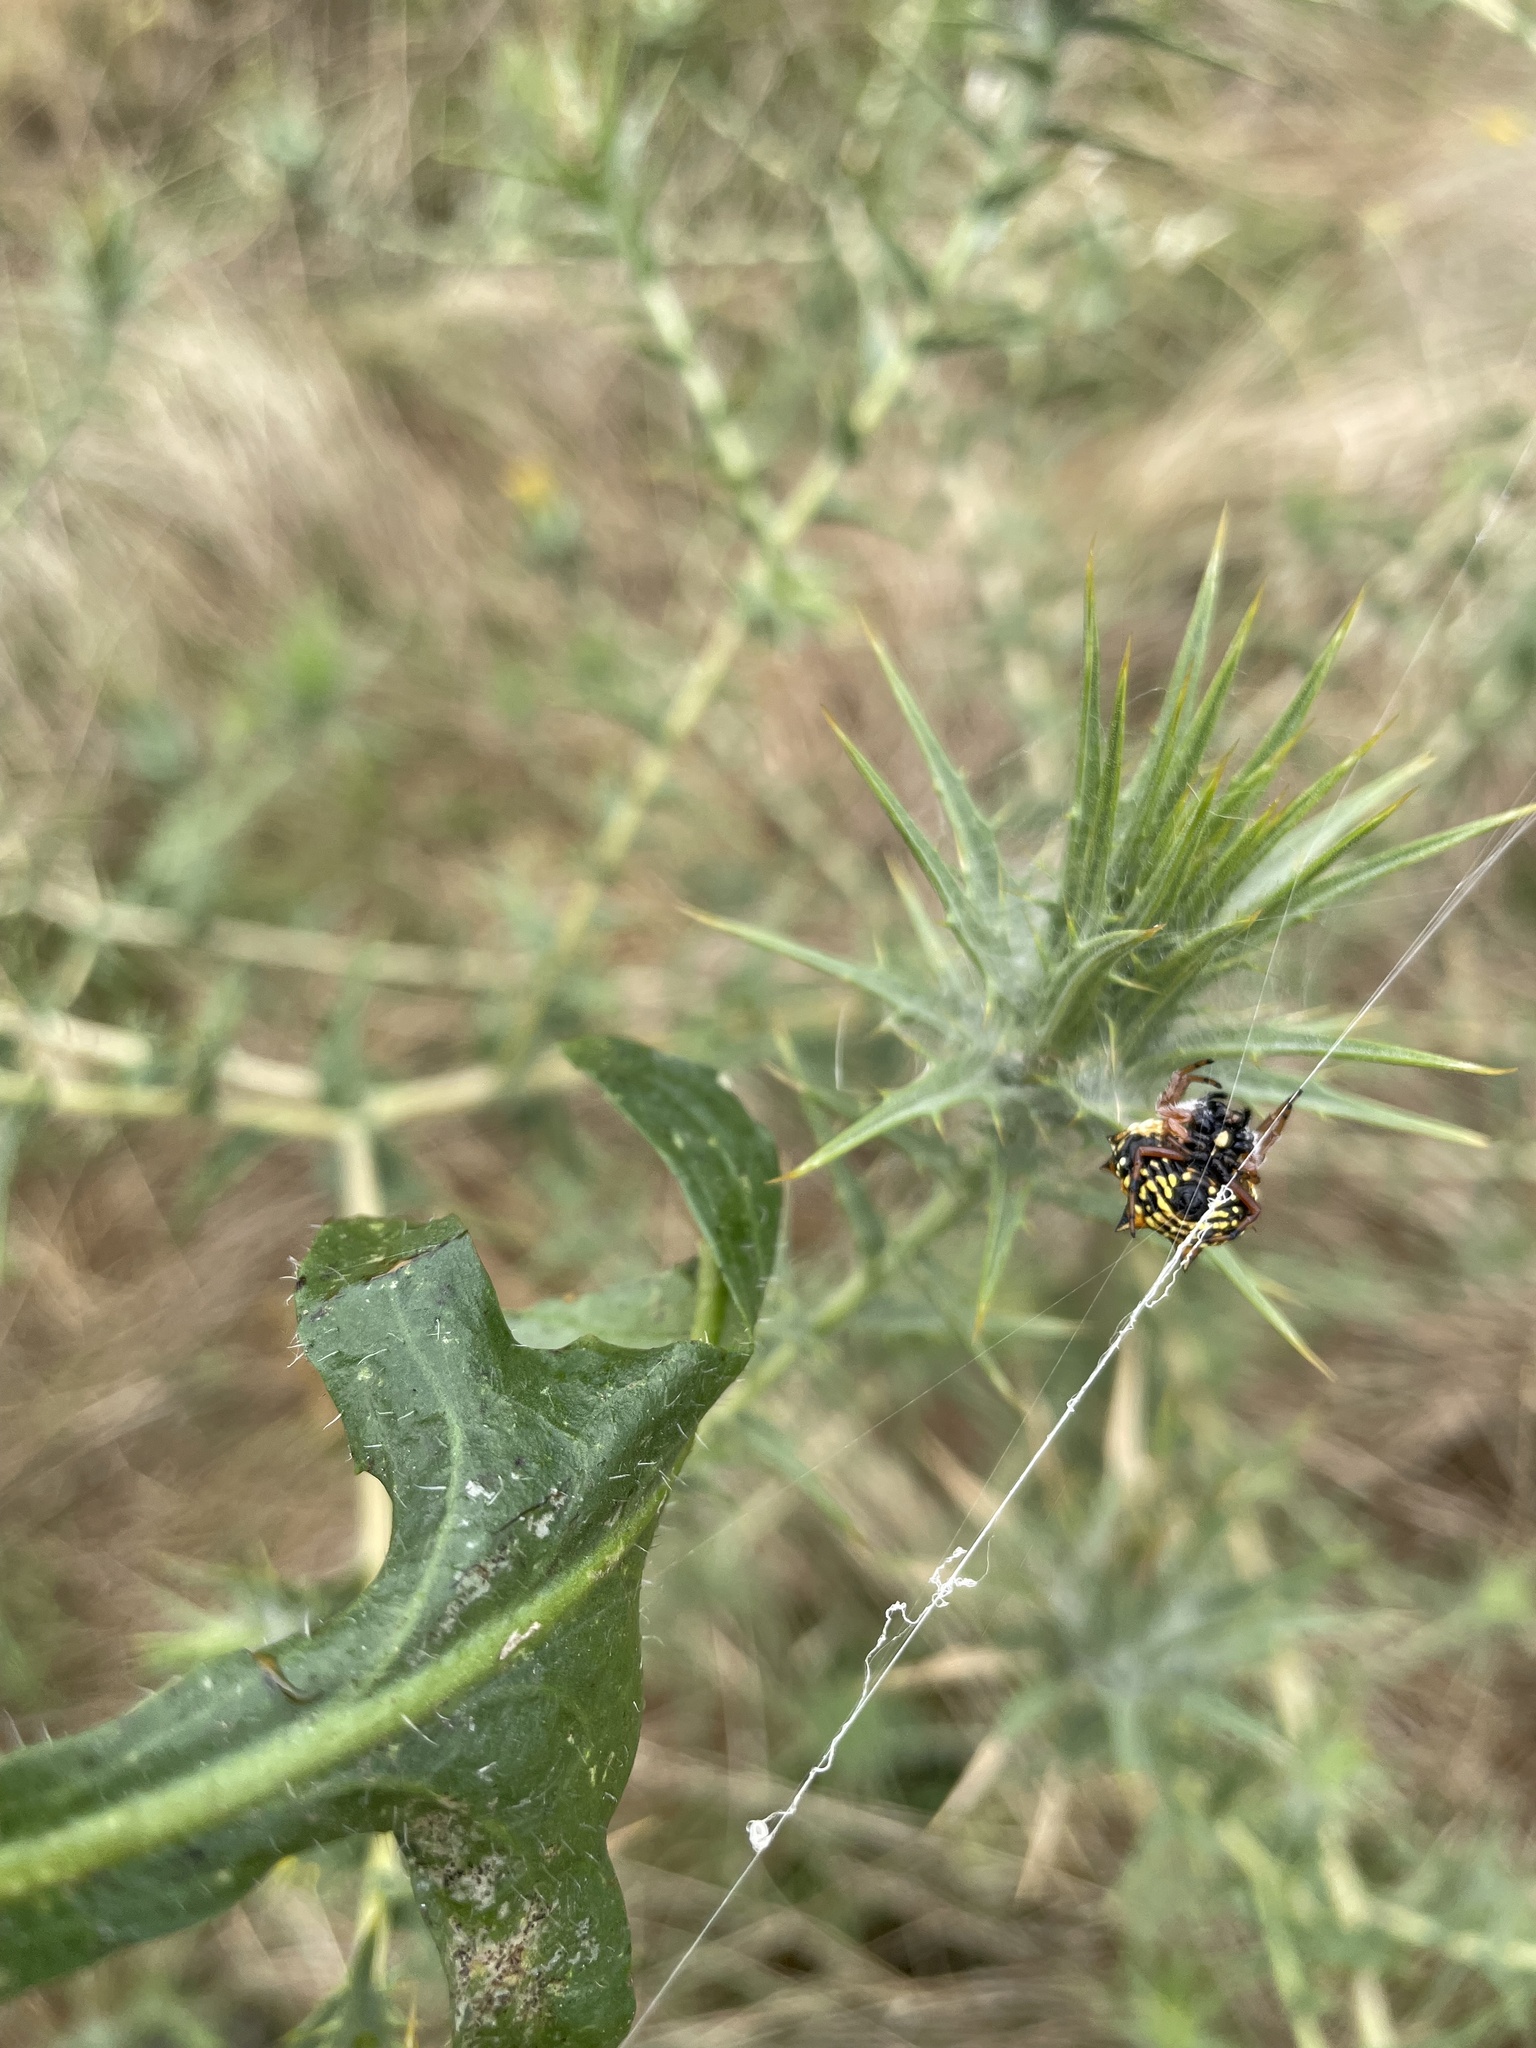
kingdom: Animalia
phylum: Arthropoda
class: Arachnida
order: Araneae
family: Araneidae
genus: Austracantha
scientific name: Austracantha minax
